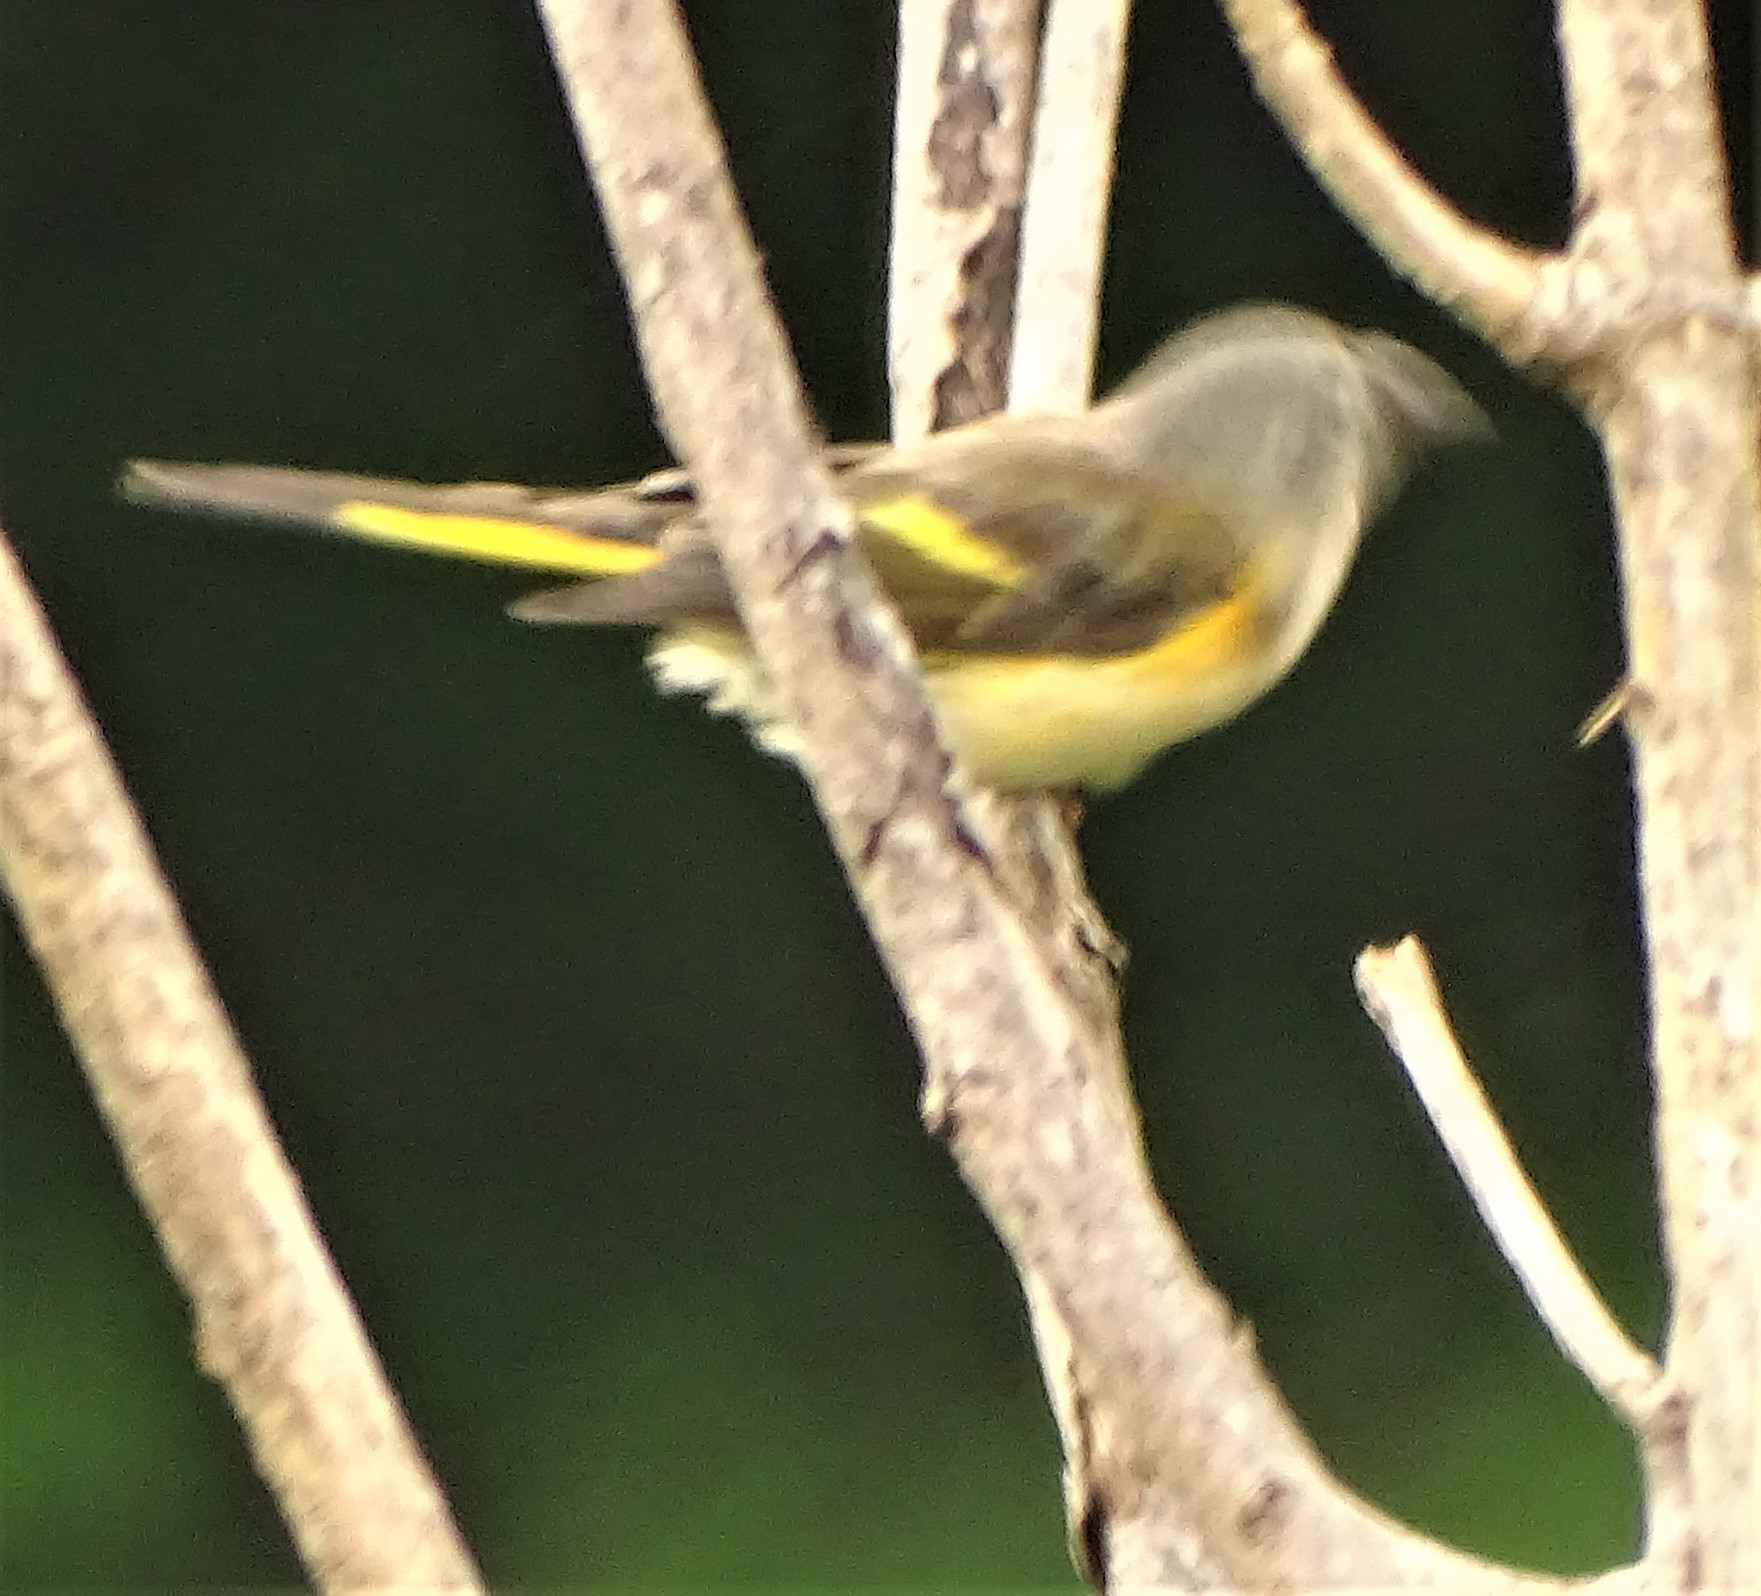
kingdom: Animalia
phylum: Chordata
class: Aves
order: Passeriformes
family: Parulidae
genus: Setophaga
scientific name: Setophaga ruticilla
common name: American redstart
